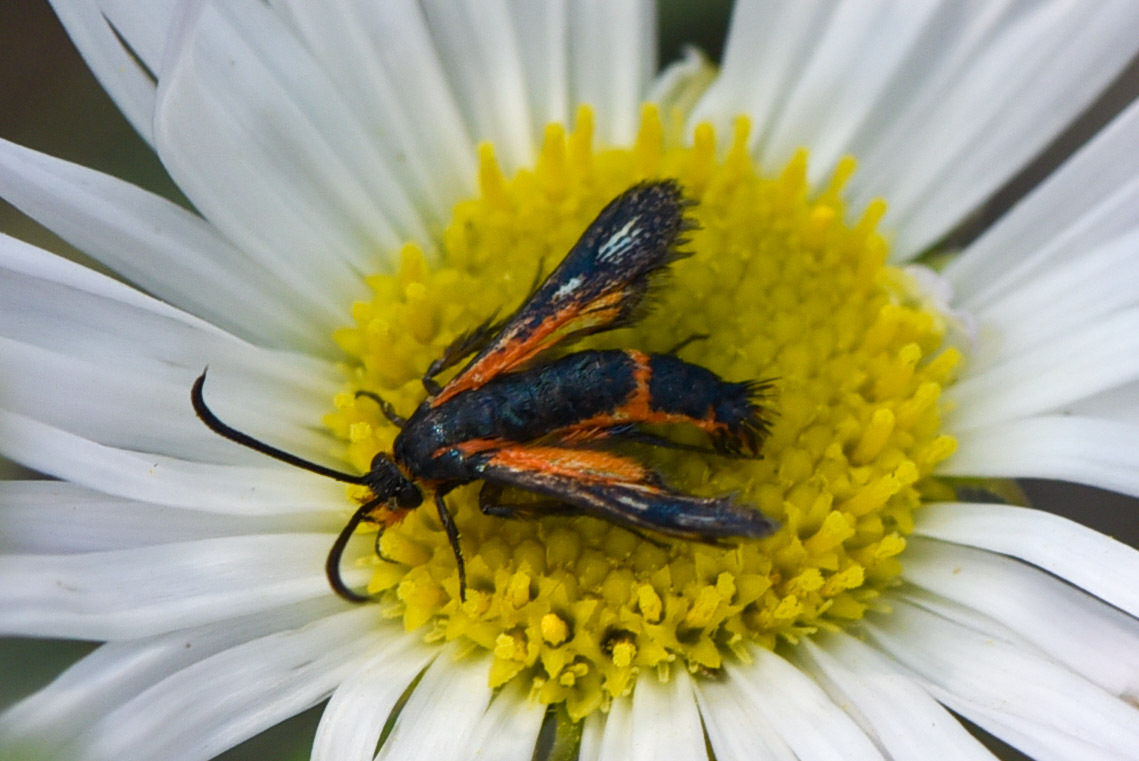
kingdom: Animalia
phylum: Arthropoda
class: Insecta
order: Lepidoptera
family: Sesiidae
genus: Synanthedon
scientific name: Synanthedon polygoni
